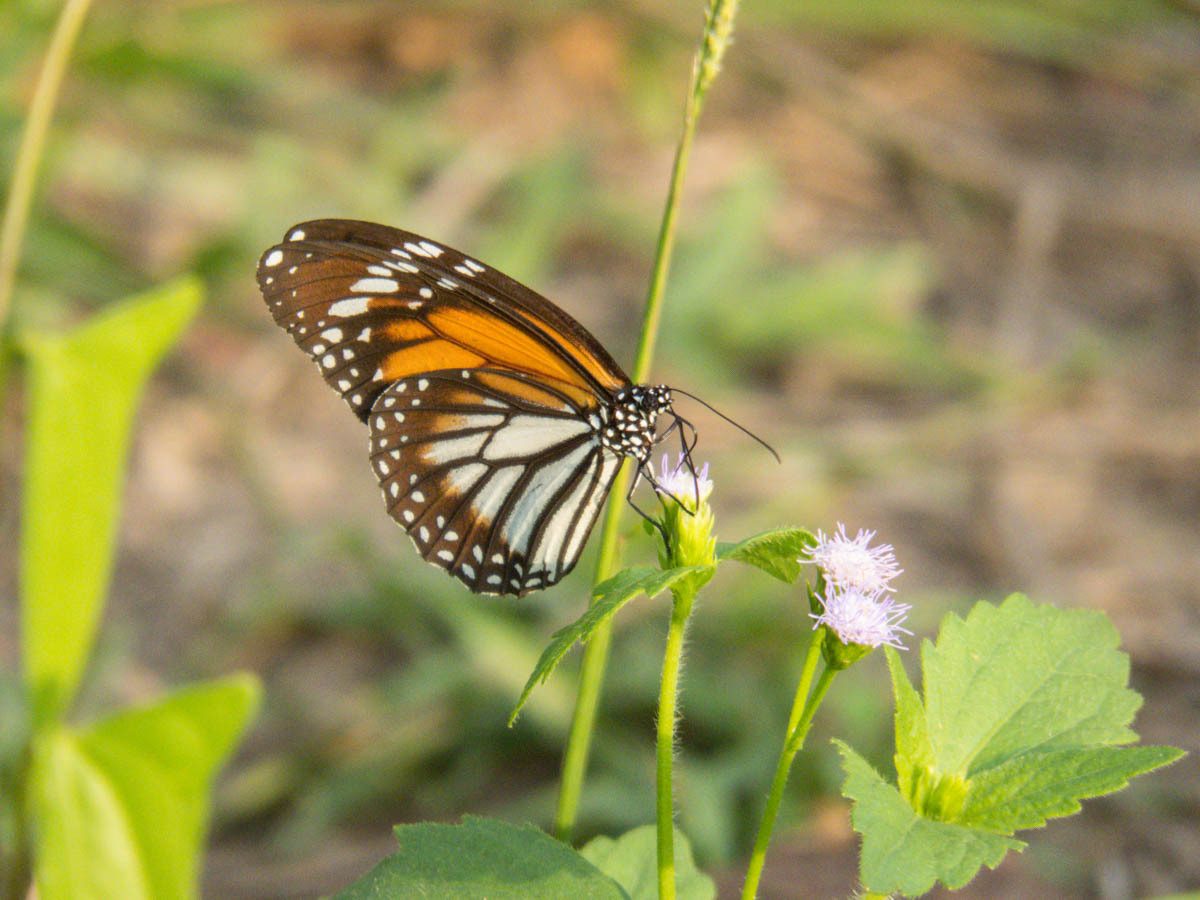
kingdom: Animalia
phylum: Arthropoda
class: Insecta
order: Lepidoptera
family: Nymphalidae
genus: Danaus
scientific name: Danaus melanippus
